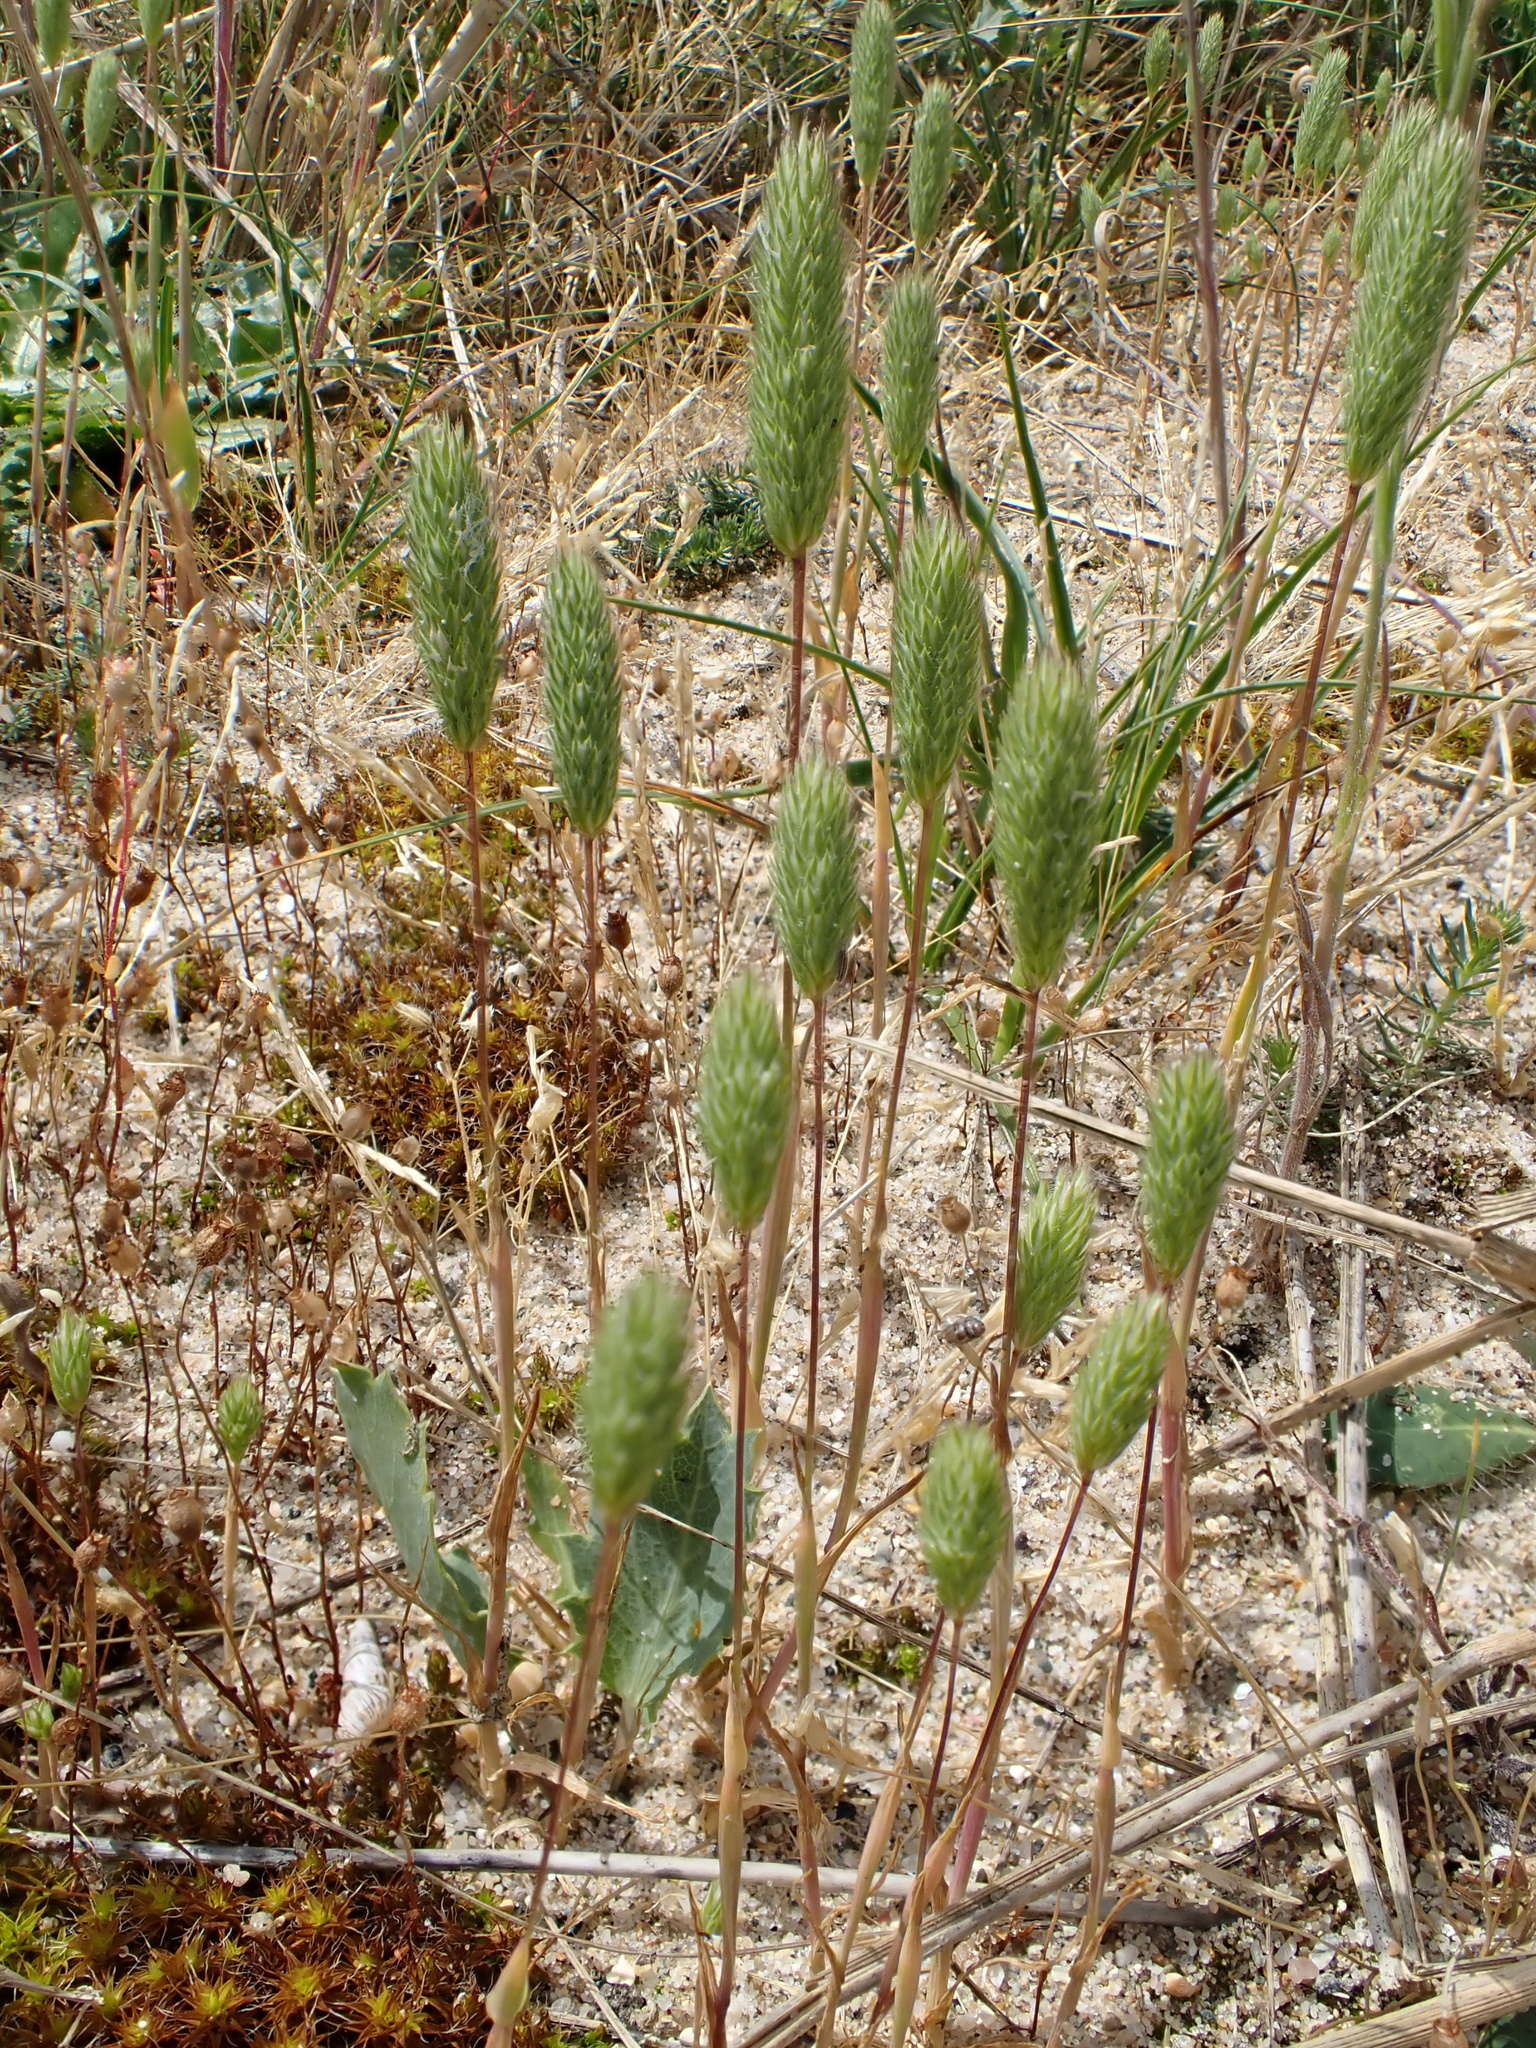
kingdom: Plantae
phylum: Tracheophyta
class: Liliopsida
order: Poales
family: Poaceae
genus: Phleum
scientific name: Phleum arenarium
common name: Sand cat's-tail
